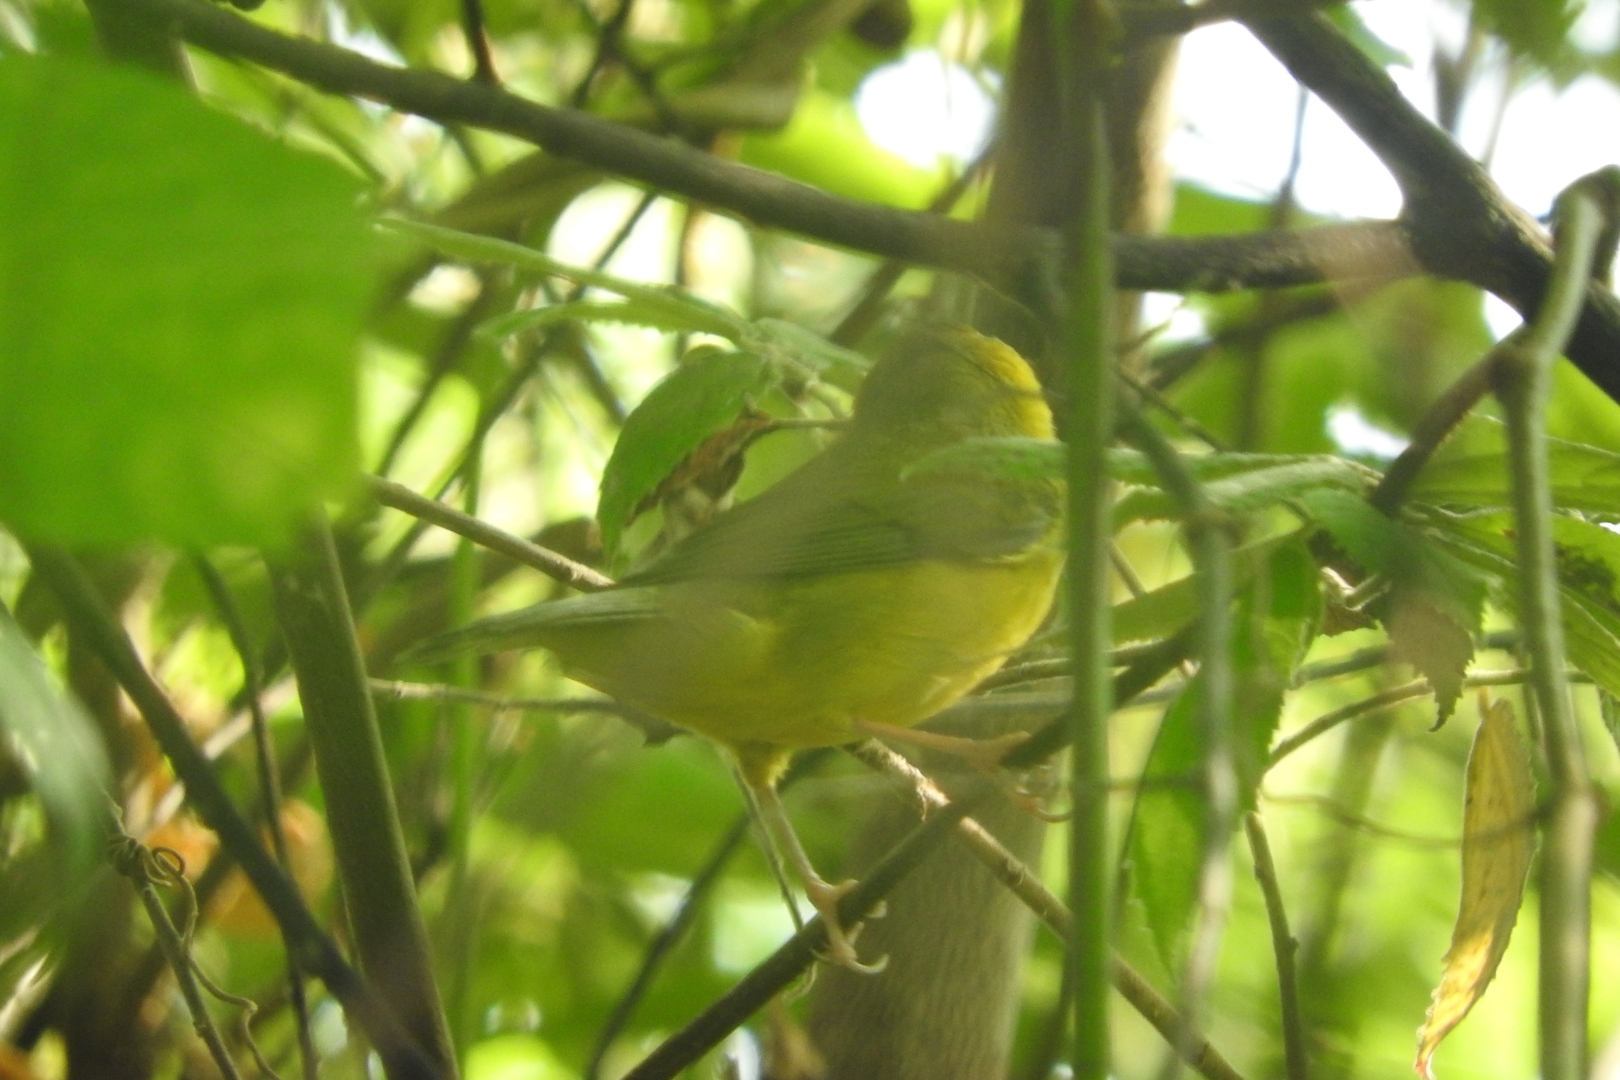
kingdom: Animalia
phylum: Chordata
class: Aves
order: Passeriformes
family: Parulidae
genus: Setophaga
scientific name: Setophaga citrina
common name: Hooded warbler
